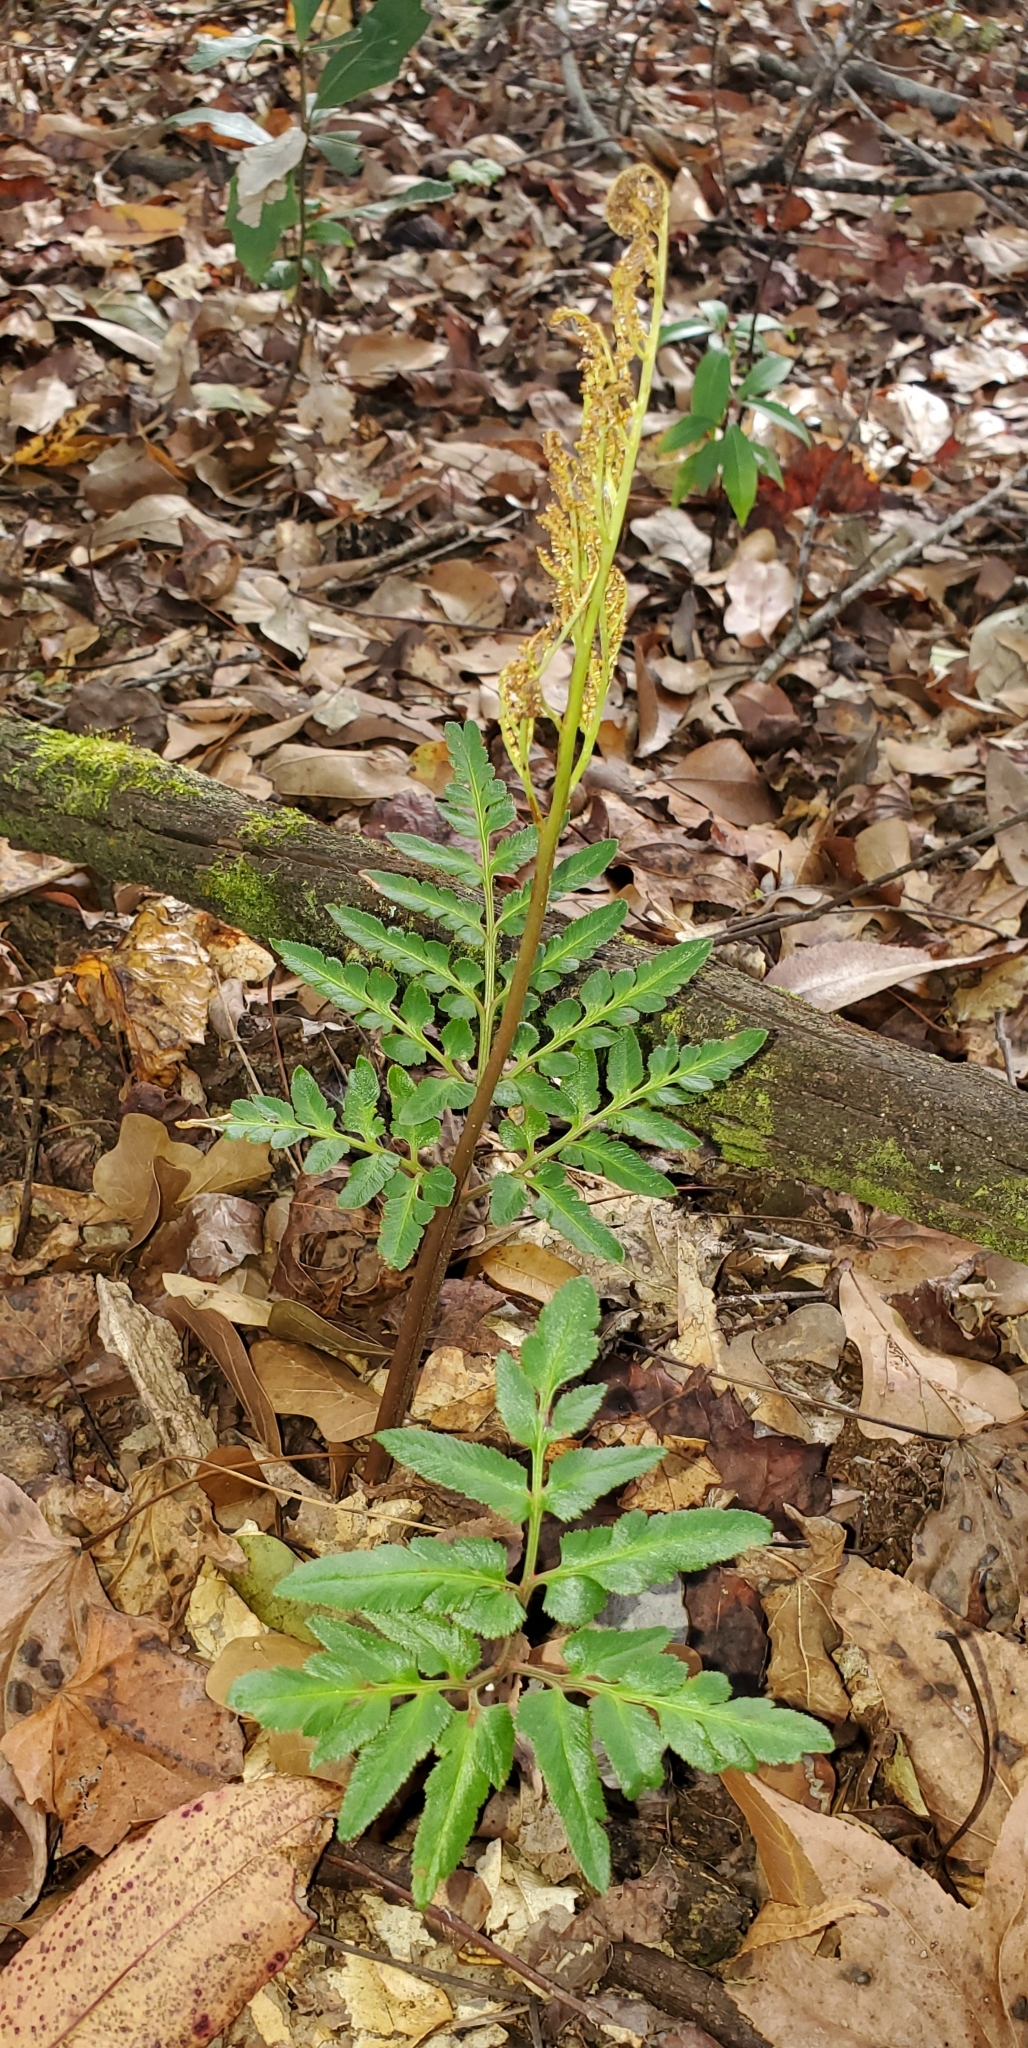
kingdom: Plantae
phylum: Tracheophyta
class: Polypodiopsida
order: Ophioglossales
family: Ophioglossaceae
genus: Sceptridium
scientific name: Sceptridium biternatum
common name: Sparse-lobed grapefern
